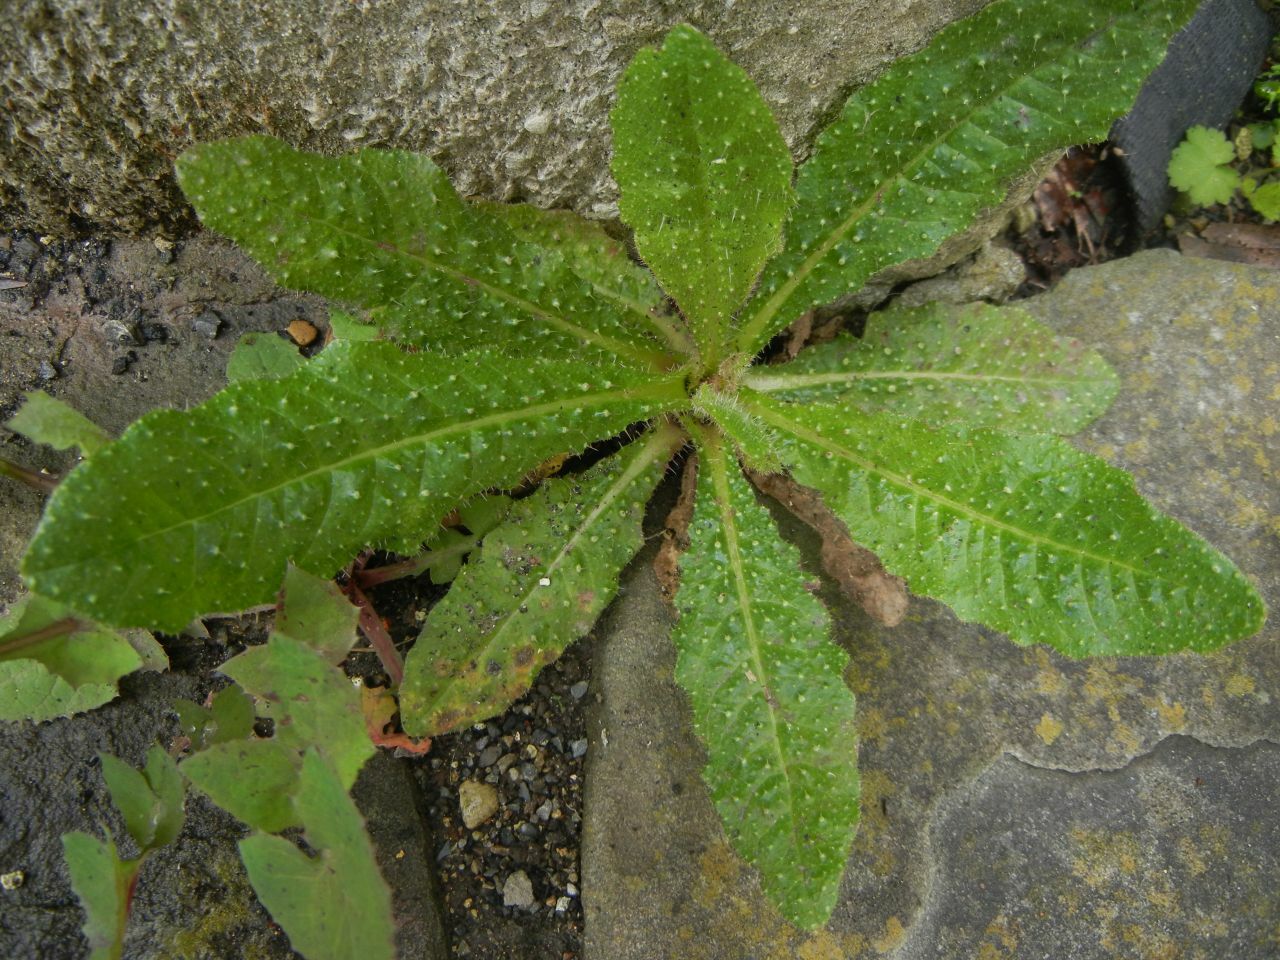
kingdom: Plantae
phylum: Tracheophyta
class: Magnoliopsida
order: Asterales
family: Asteraceae
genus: Helminthotheca
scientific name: Helminthotheca echioides
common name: Ox-tongue
